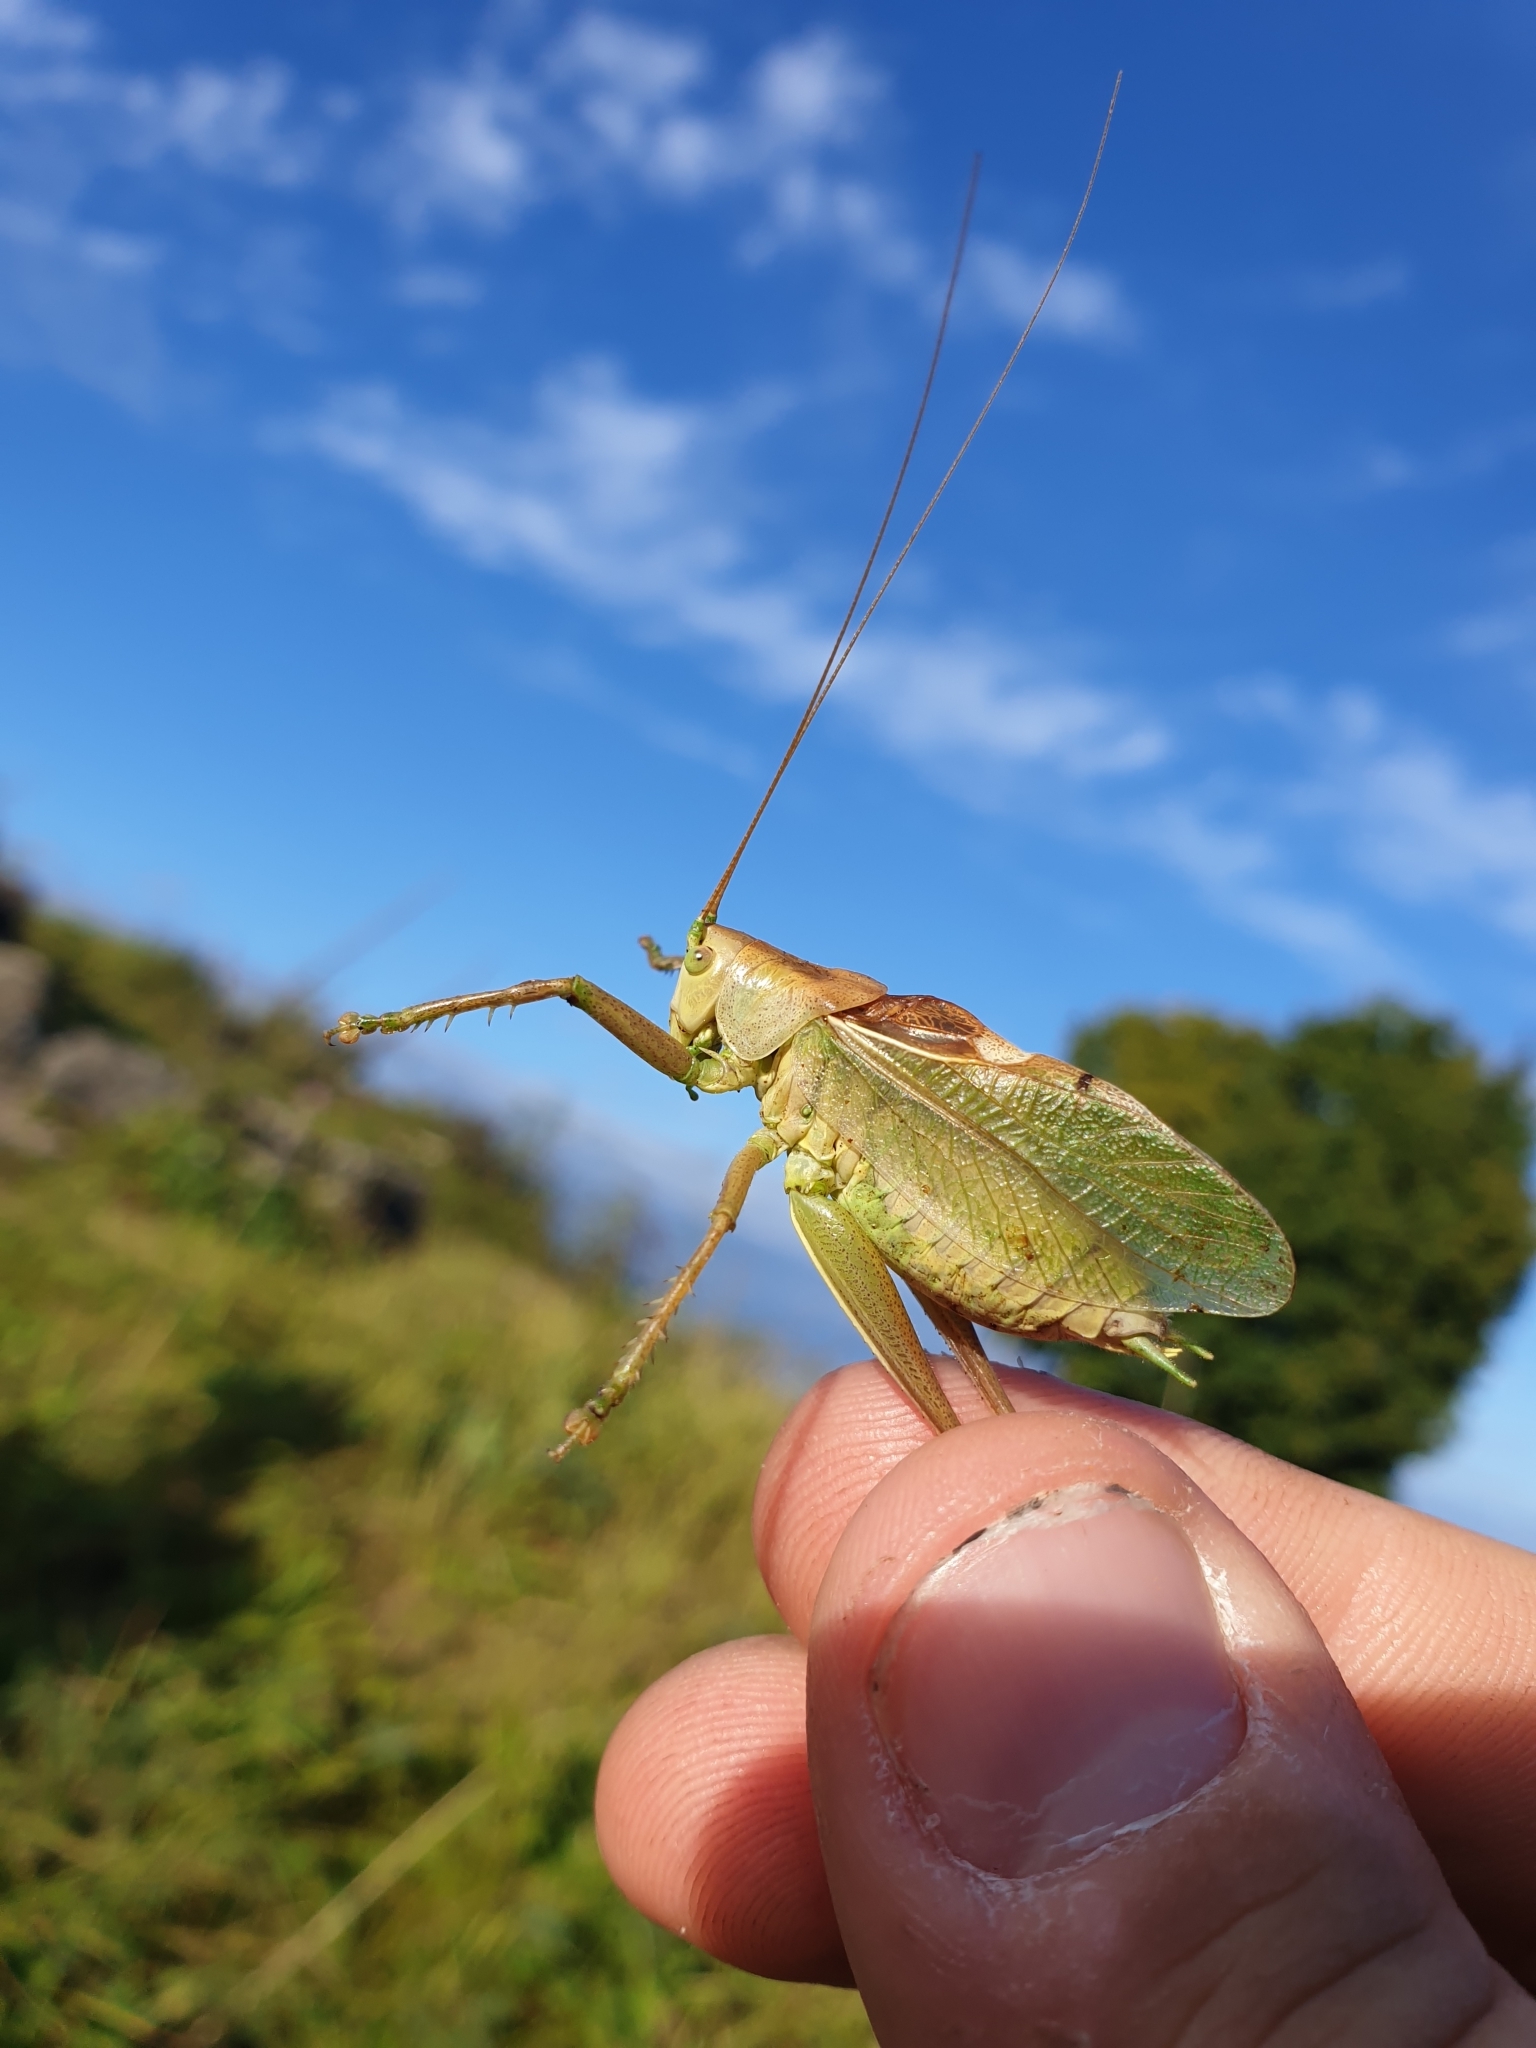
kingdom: Animalia
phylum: Arthropoda
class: Insecta
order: Orthoptera
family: Tettigoniidae
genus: Tettigonia
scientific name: Tettigonia cantans
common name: Upland green bush-cricket
